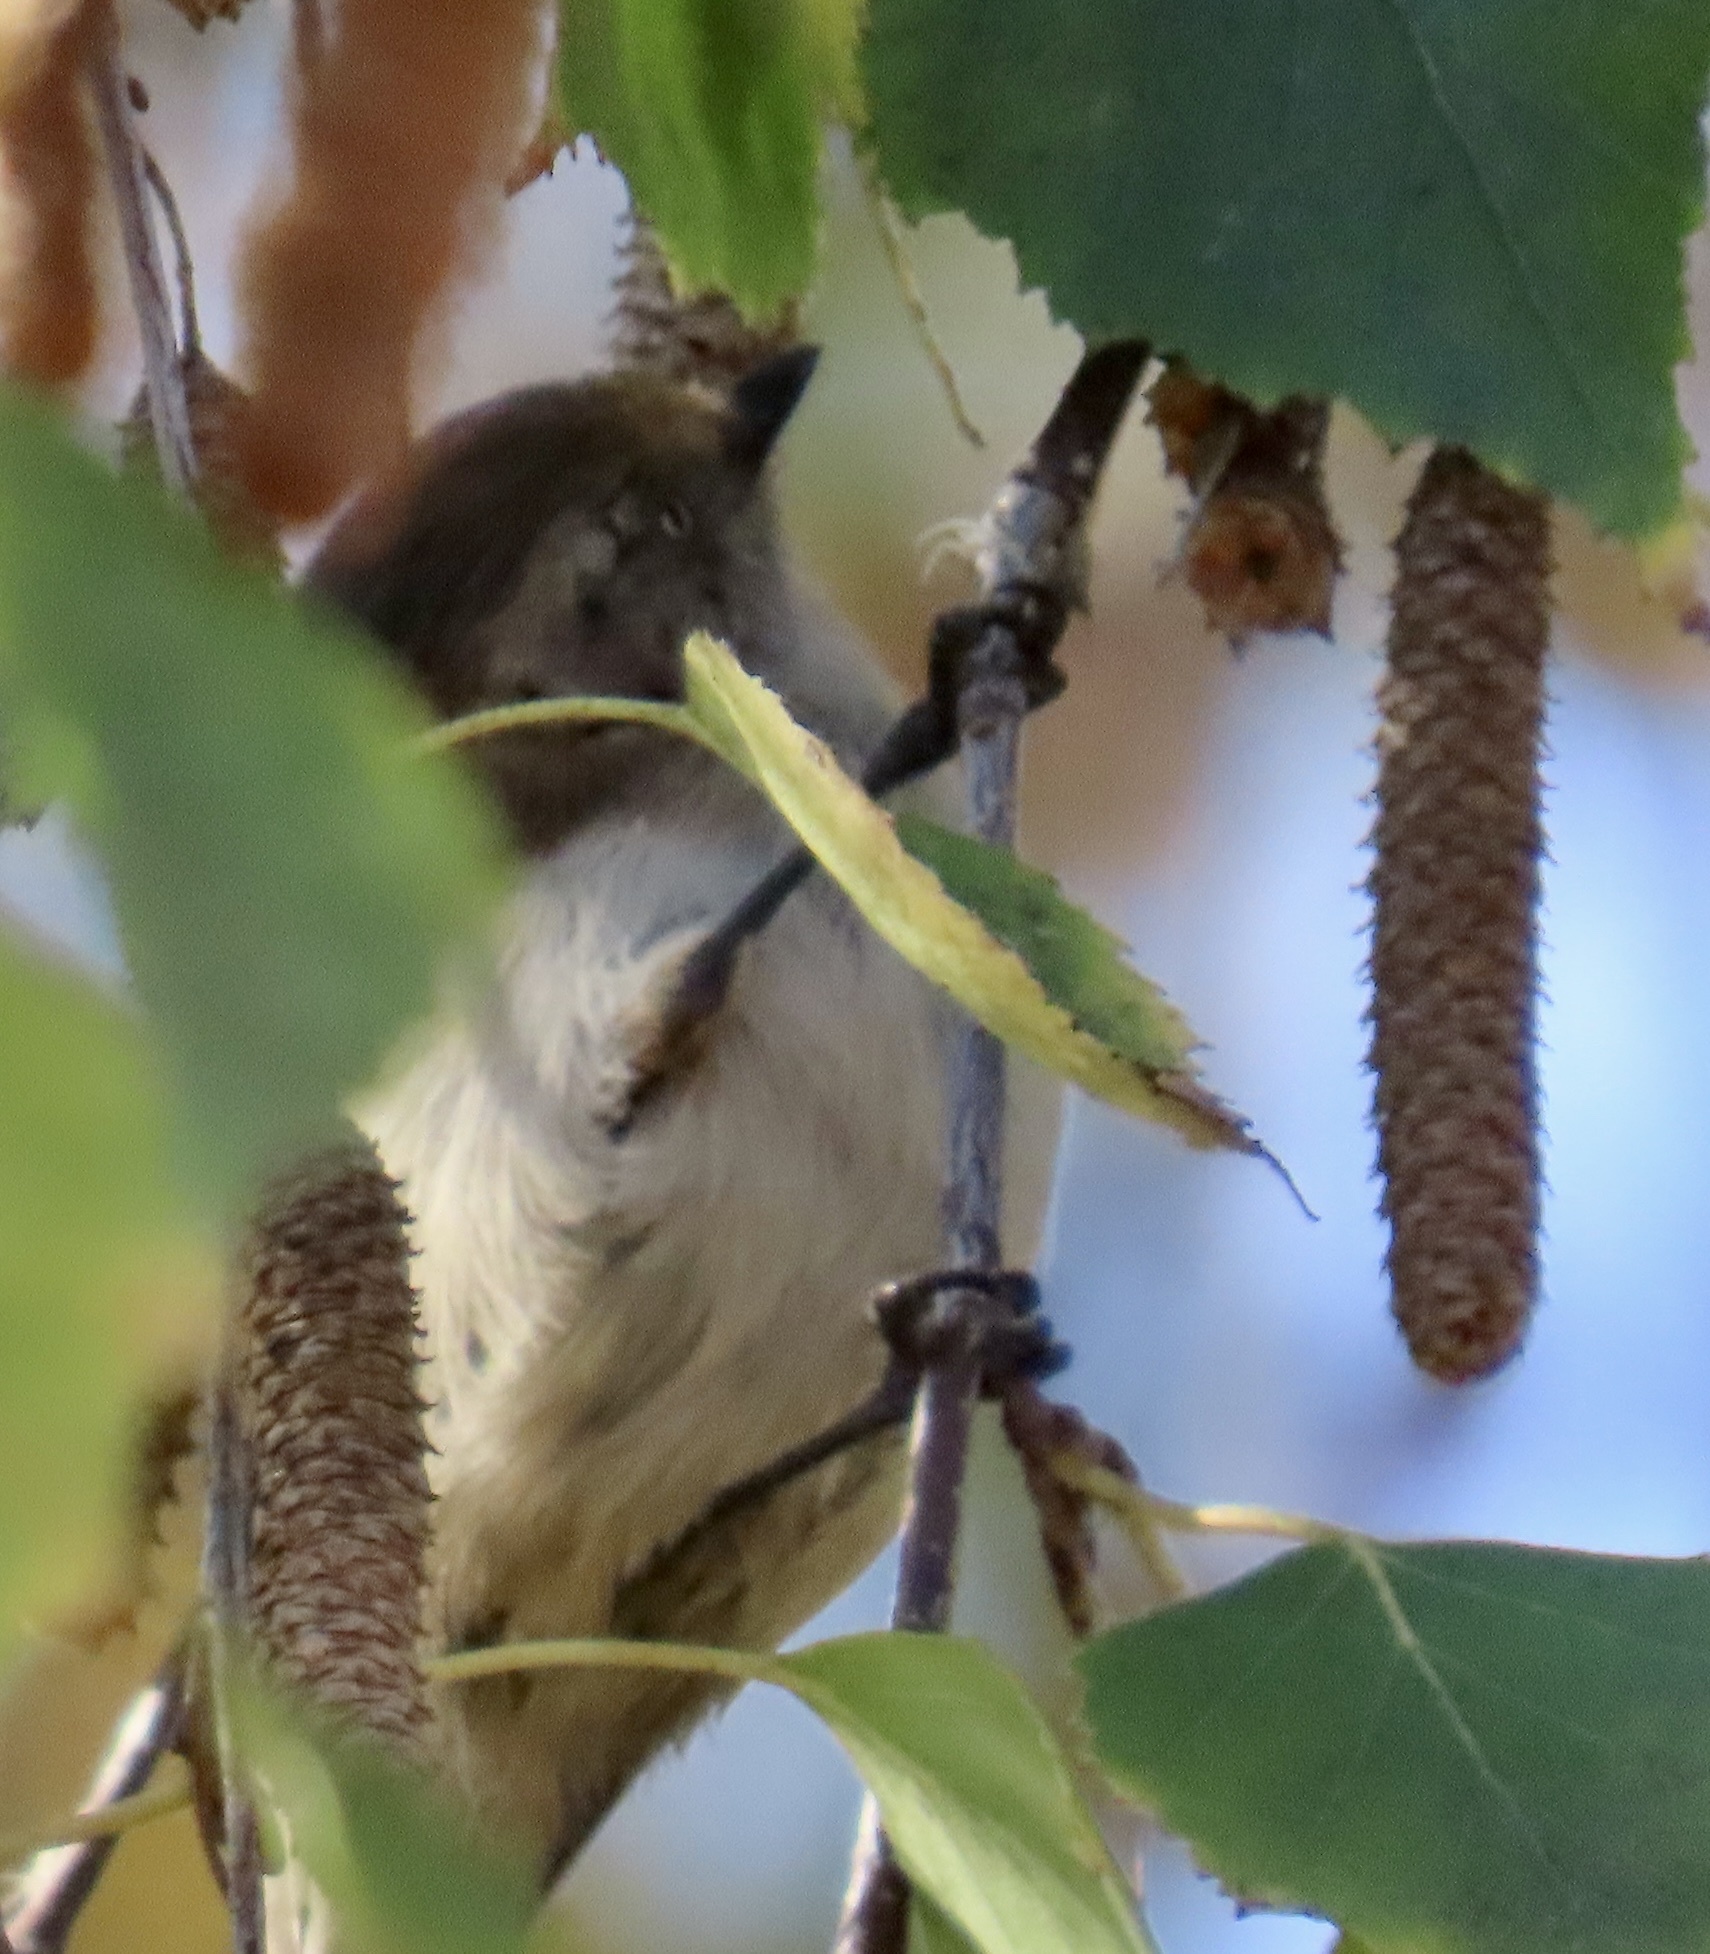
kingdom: Animalia
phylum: Chordata
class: Aves
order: Passeriformes
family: Aegithalidae
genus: Psaltriparus
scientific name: Psaltriparus minimus
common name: American bushtit
